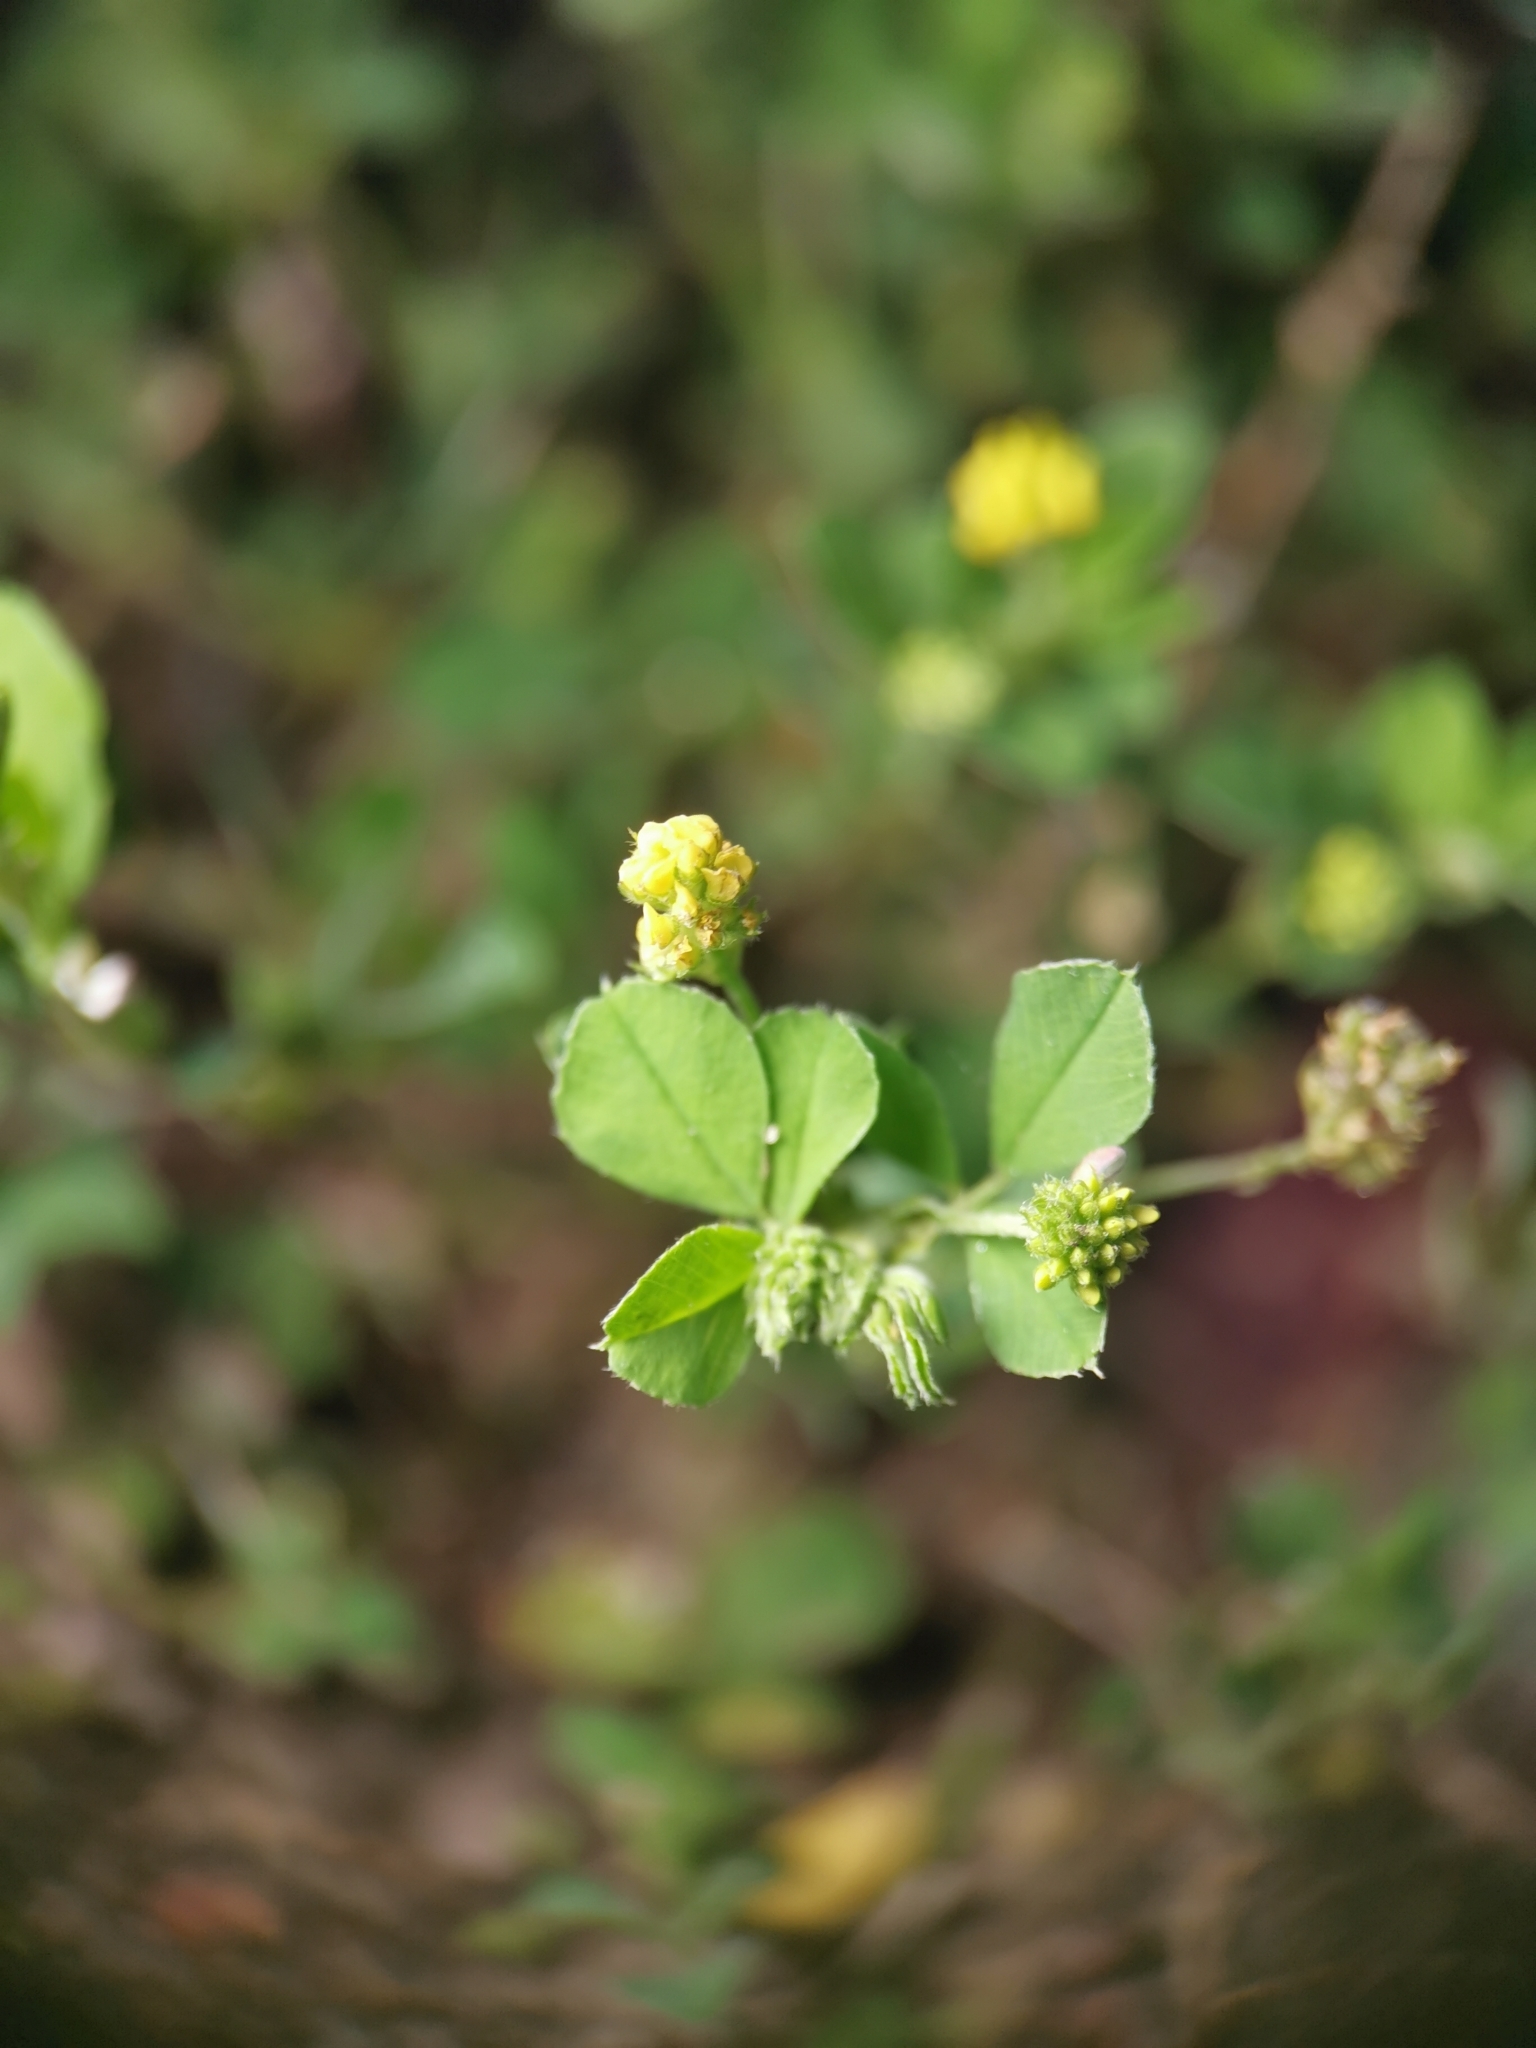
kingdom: Plantae
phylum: Tracheophyta
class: Magnoliopsida
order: Fabales
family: Fabaceae
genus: Medicago
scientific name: Medicago lupulina
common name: Black medick
